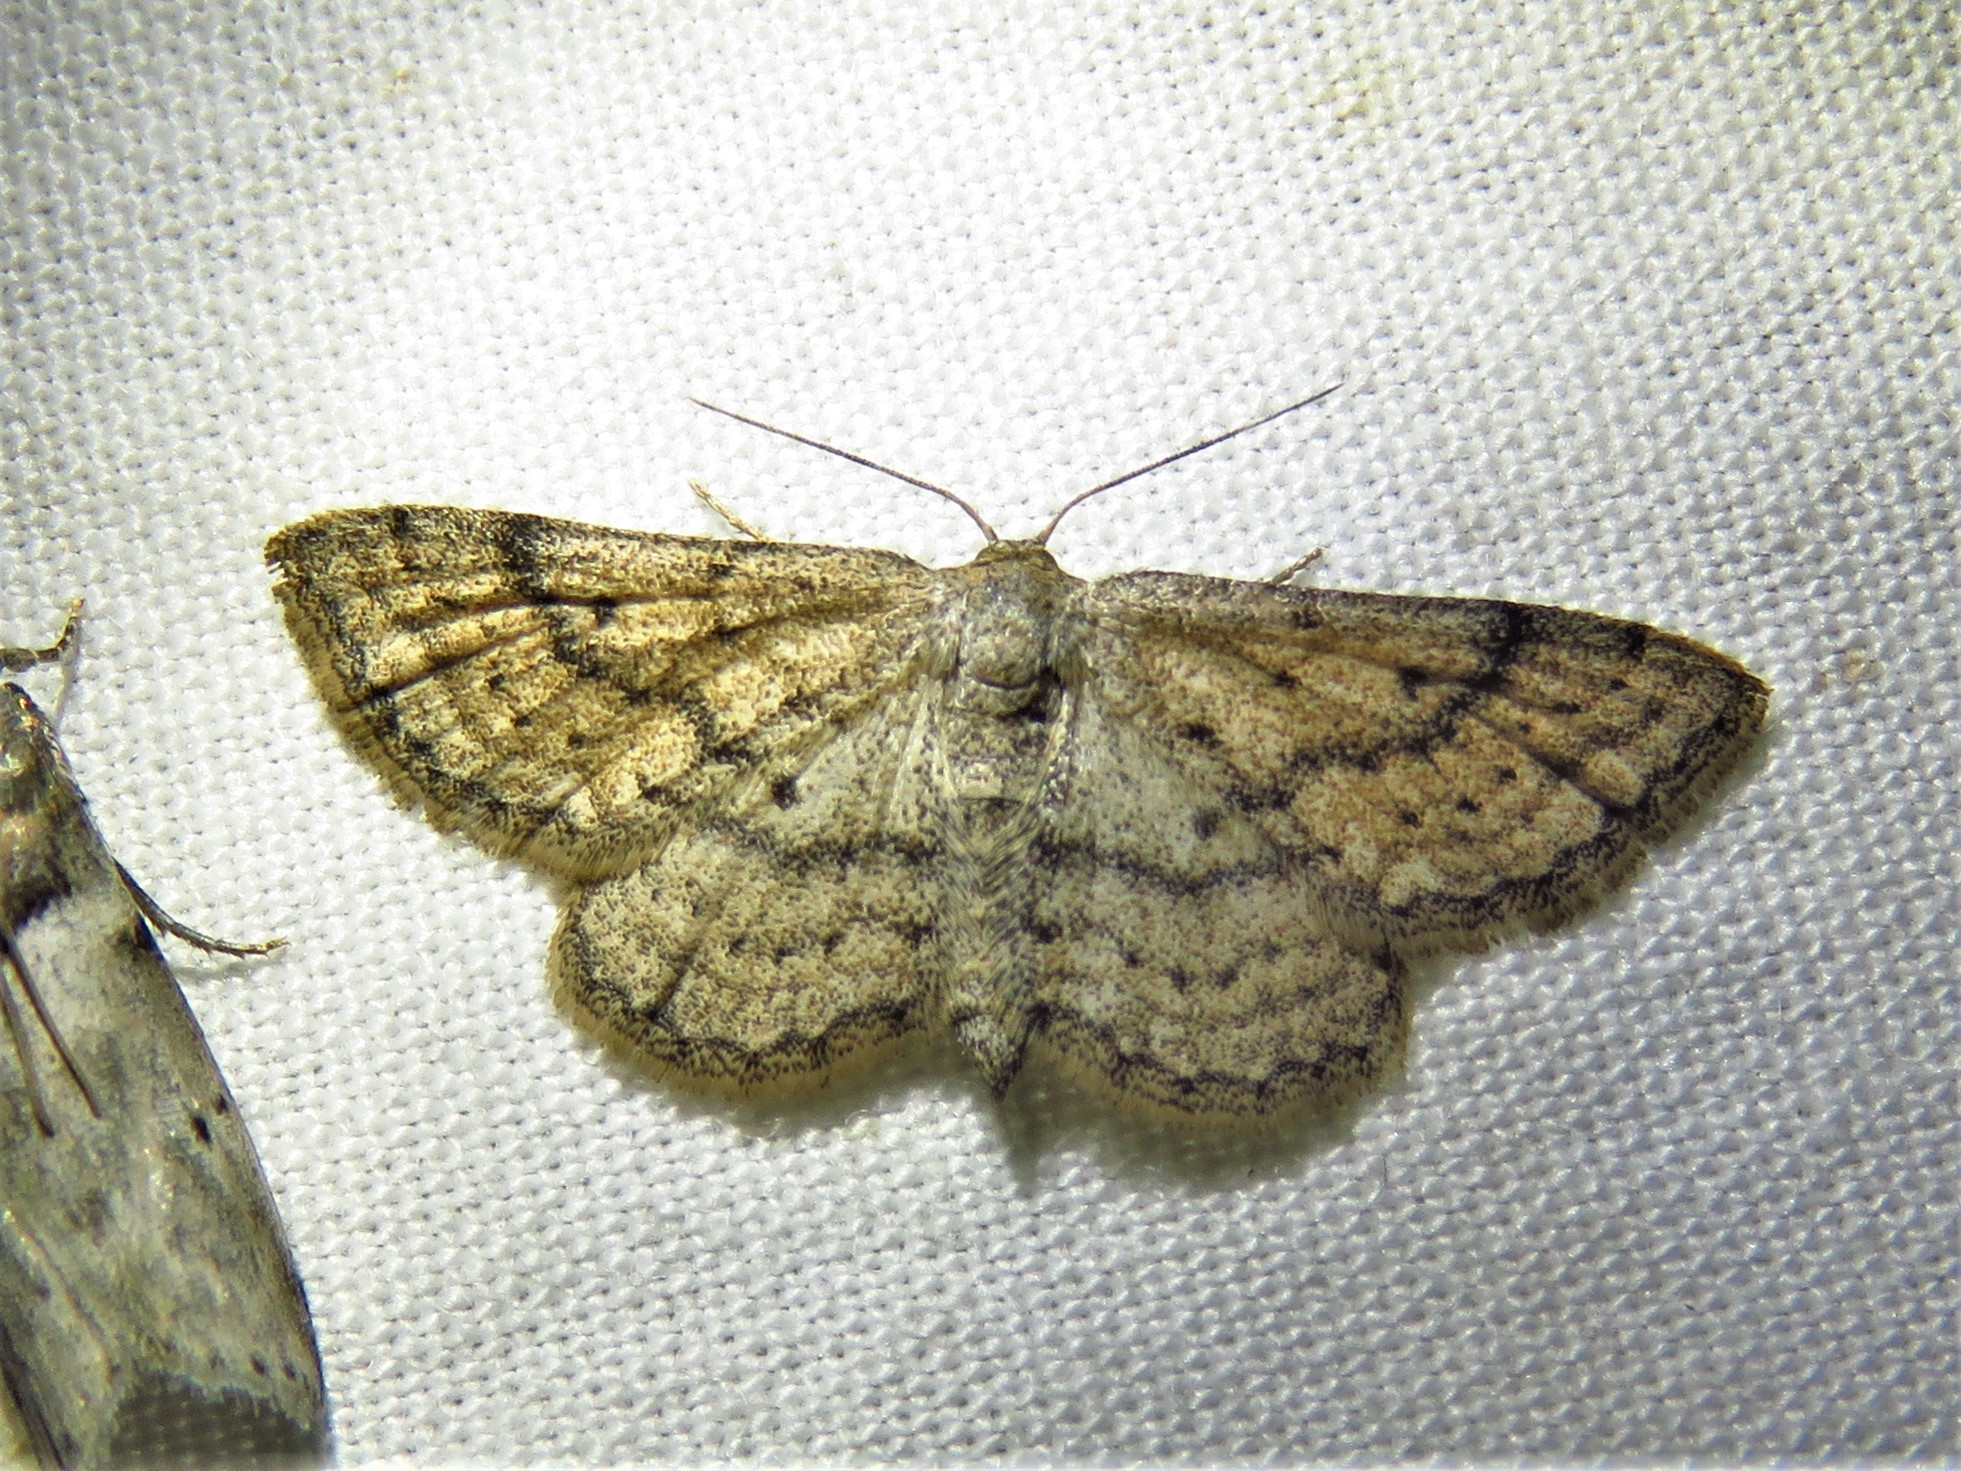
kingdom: Animalia
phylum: Arthropoda
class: Insecta
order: Lepidoptera
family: Geometridae
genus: Lobocleta
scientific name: Lobocleta ossularia
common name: Drab brown wave
